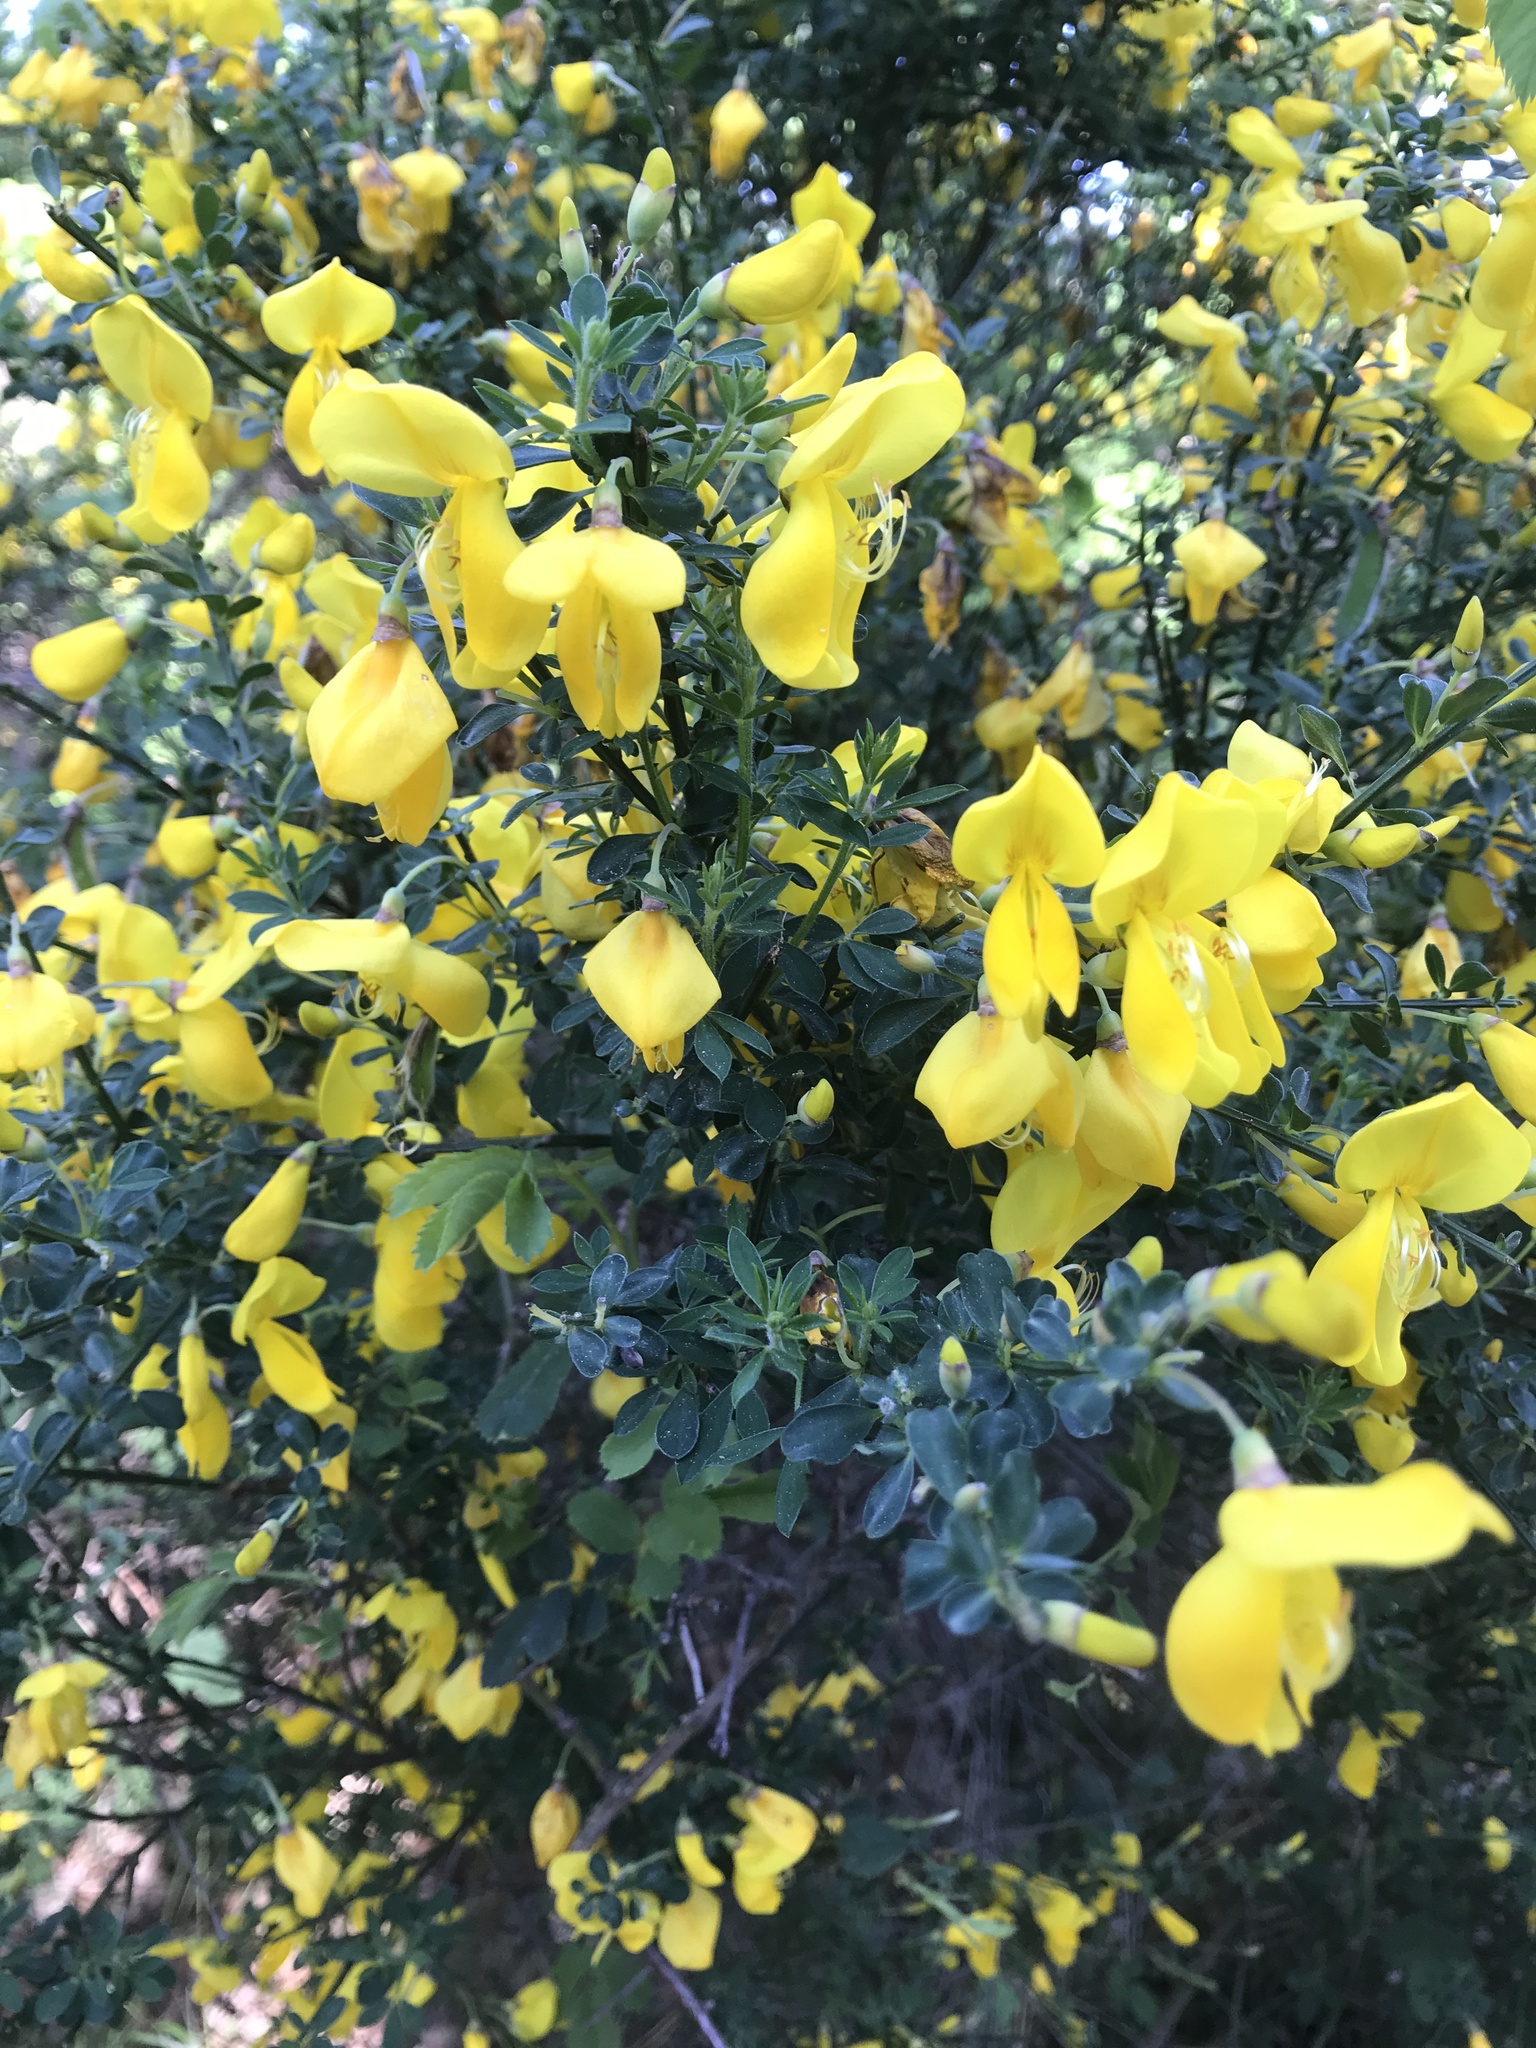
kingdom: Plantae
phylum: Tracheophyta
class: Magnoliopsida
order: Fabales
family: Fabaceae
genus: Cytisus
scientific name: Cytisus scoparius
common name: Scotch broom
